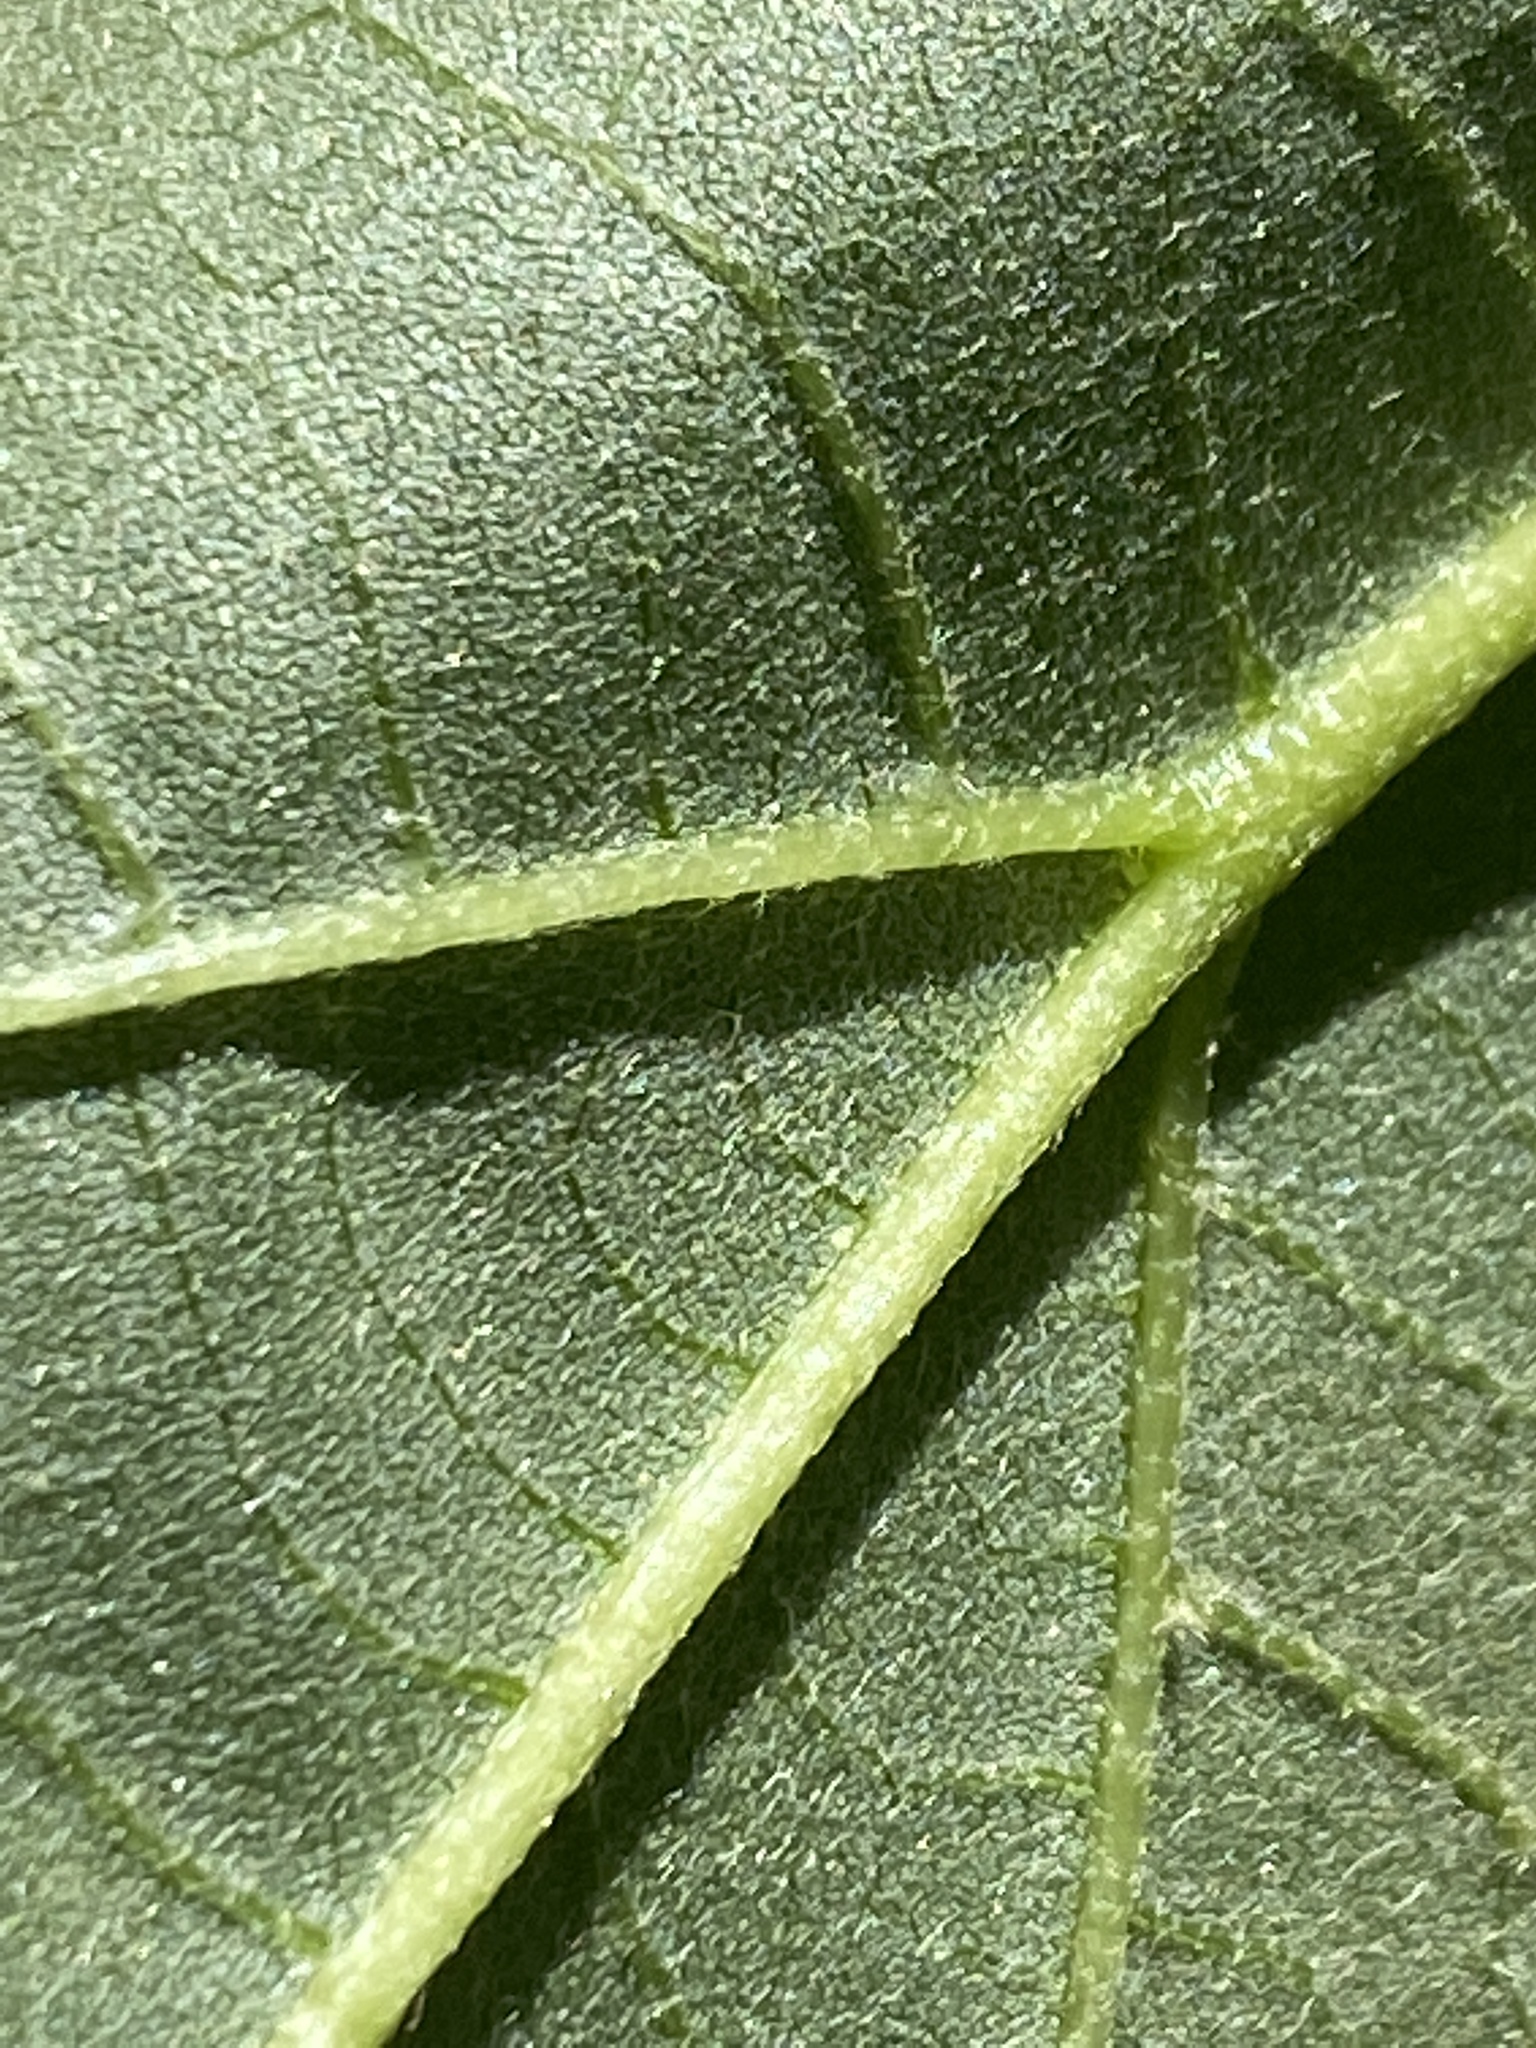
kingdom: Plantae
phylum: Tracheophyta
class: Magnoliopsida
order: Malvales
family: Malvaceae
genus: Tilia
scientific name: Tilia americana
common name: Basswood
